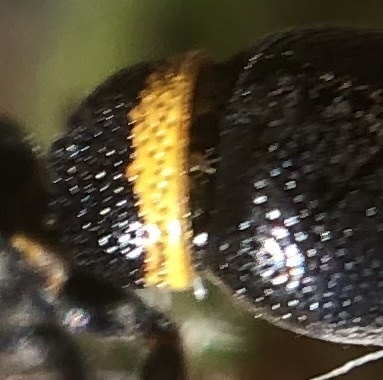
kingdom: Animalia
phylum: Arthropoda
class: Insecta
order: Hymenoptera
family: Eumenidae
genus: Parancistrocerus
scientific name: Parancistrocerus perennis
